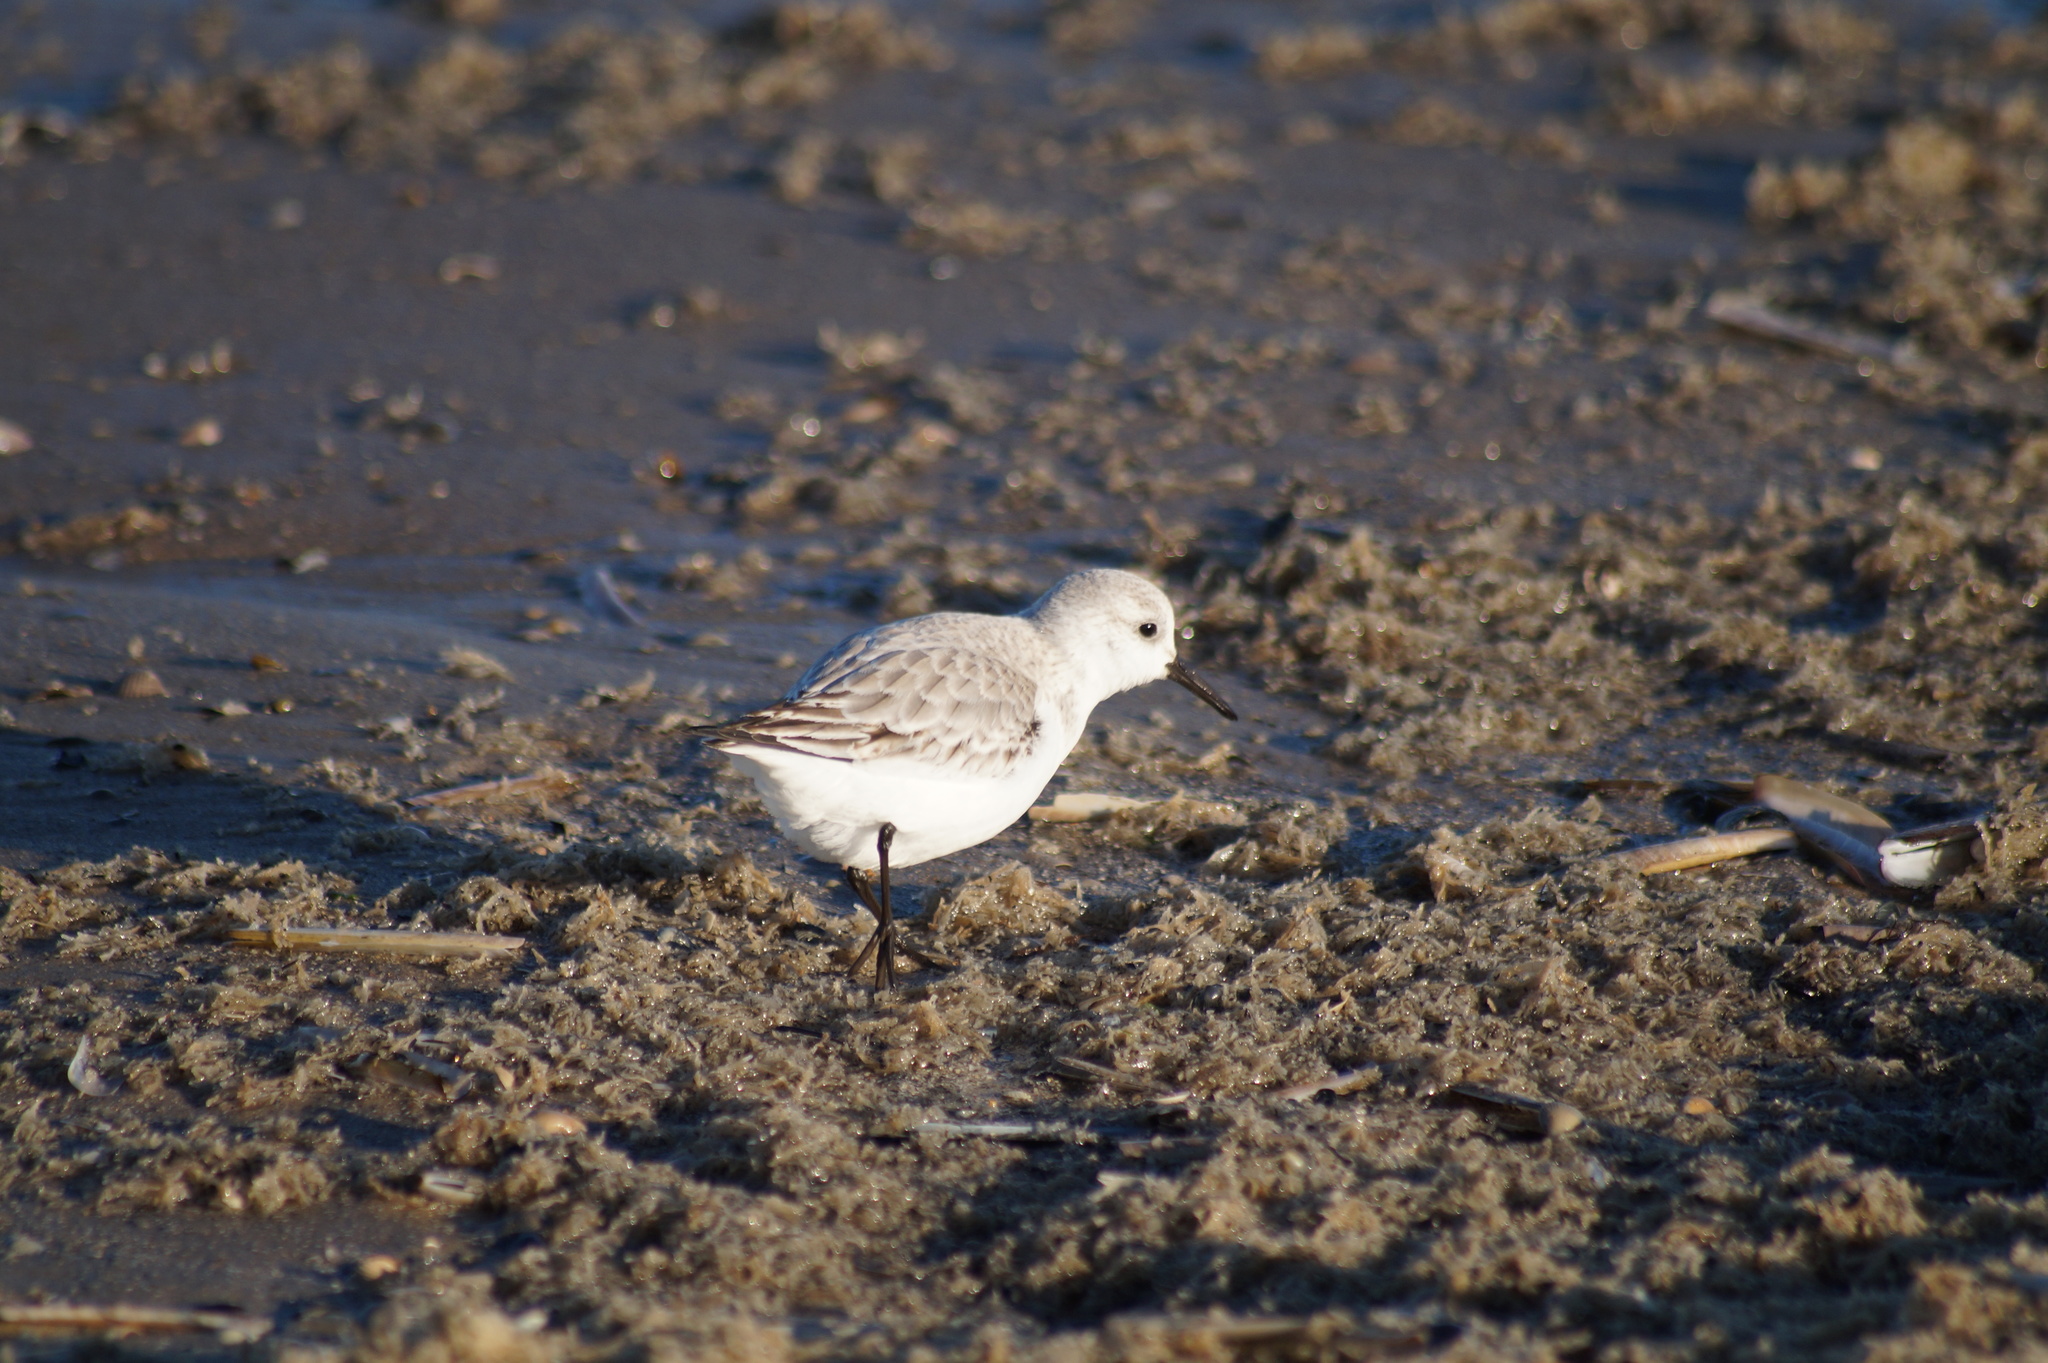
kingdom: Animalia
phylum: Chordata
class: Aves
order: Charadriiformes
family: Scolopacidae
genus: Calidris
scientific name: Calidris alba
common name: Sanderling
